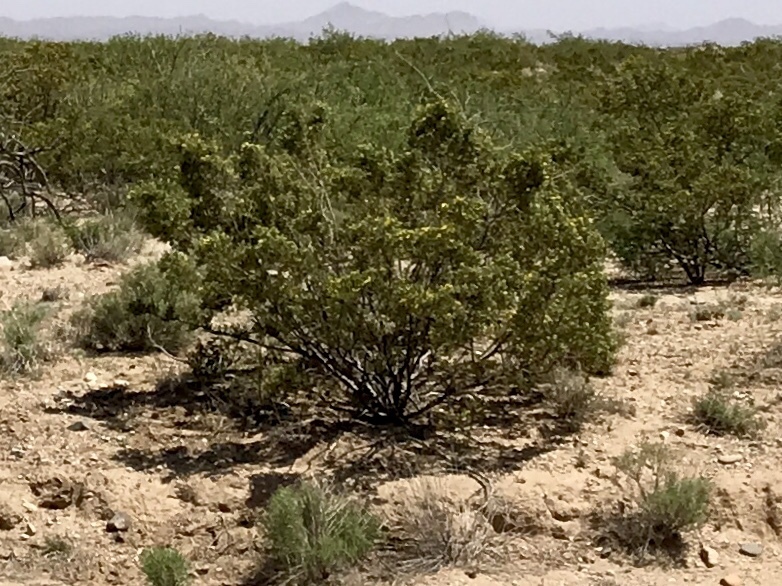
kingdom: Plantae
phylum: Tracheophyta
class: Magnoliopsida
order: Zygophyllales
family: Zygophyllaceae
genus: Larrea
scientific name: Larrea tridentata
